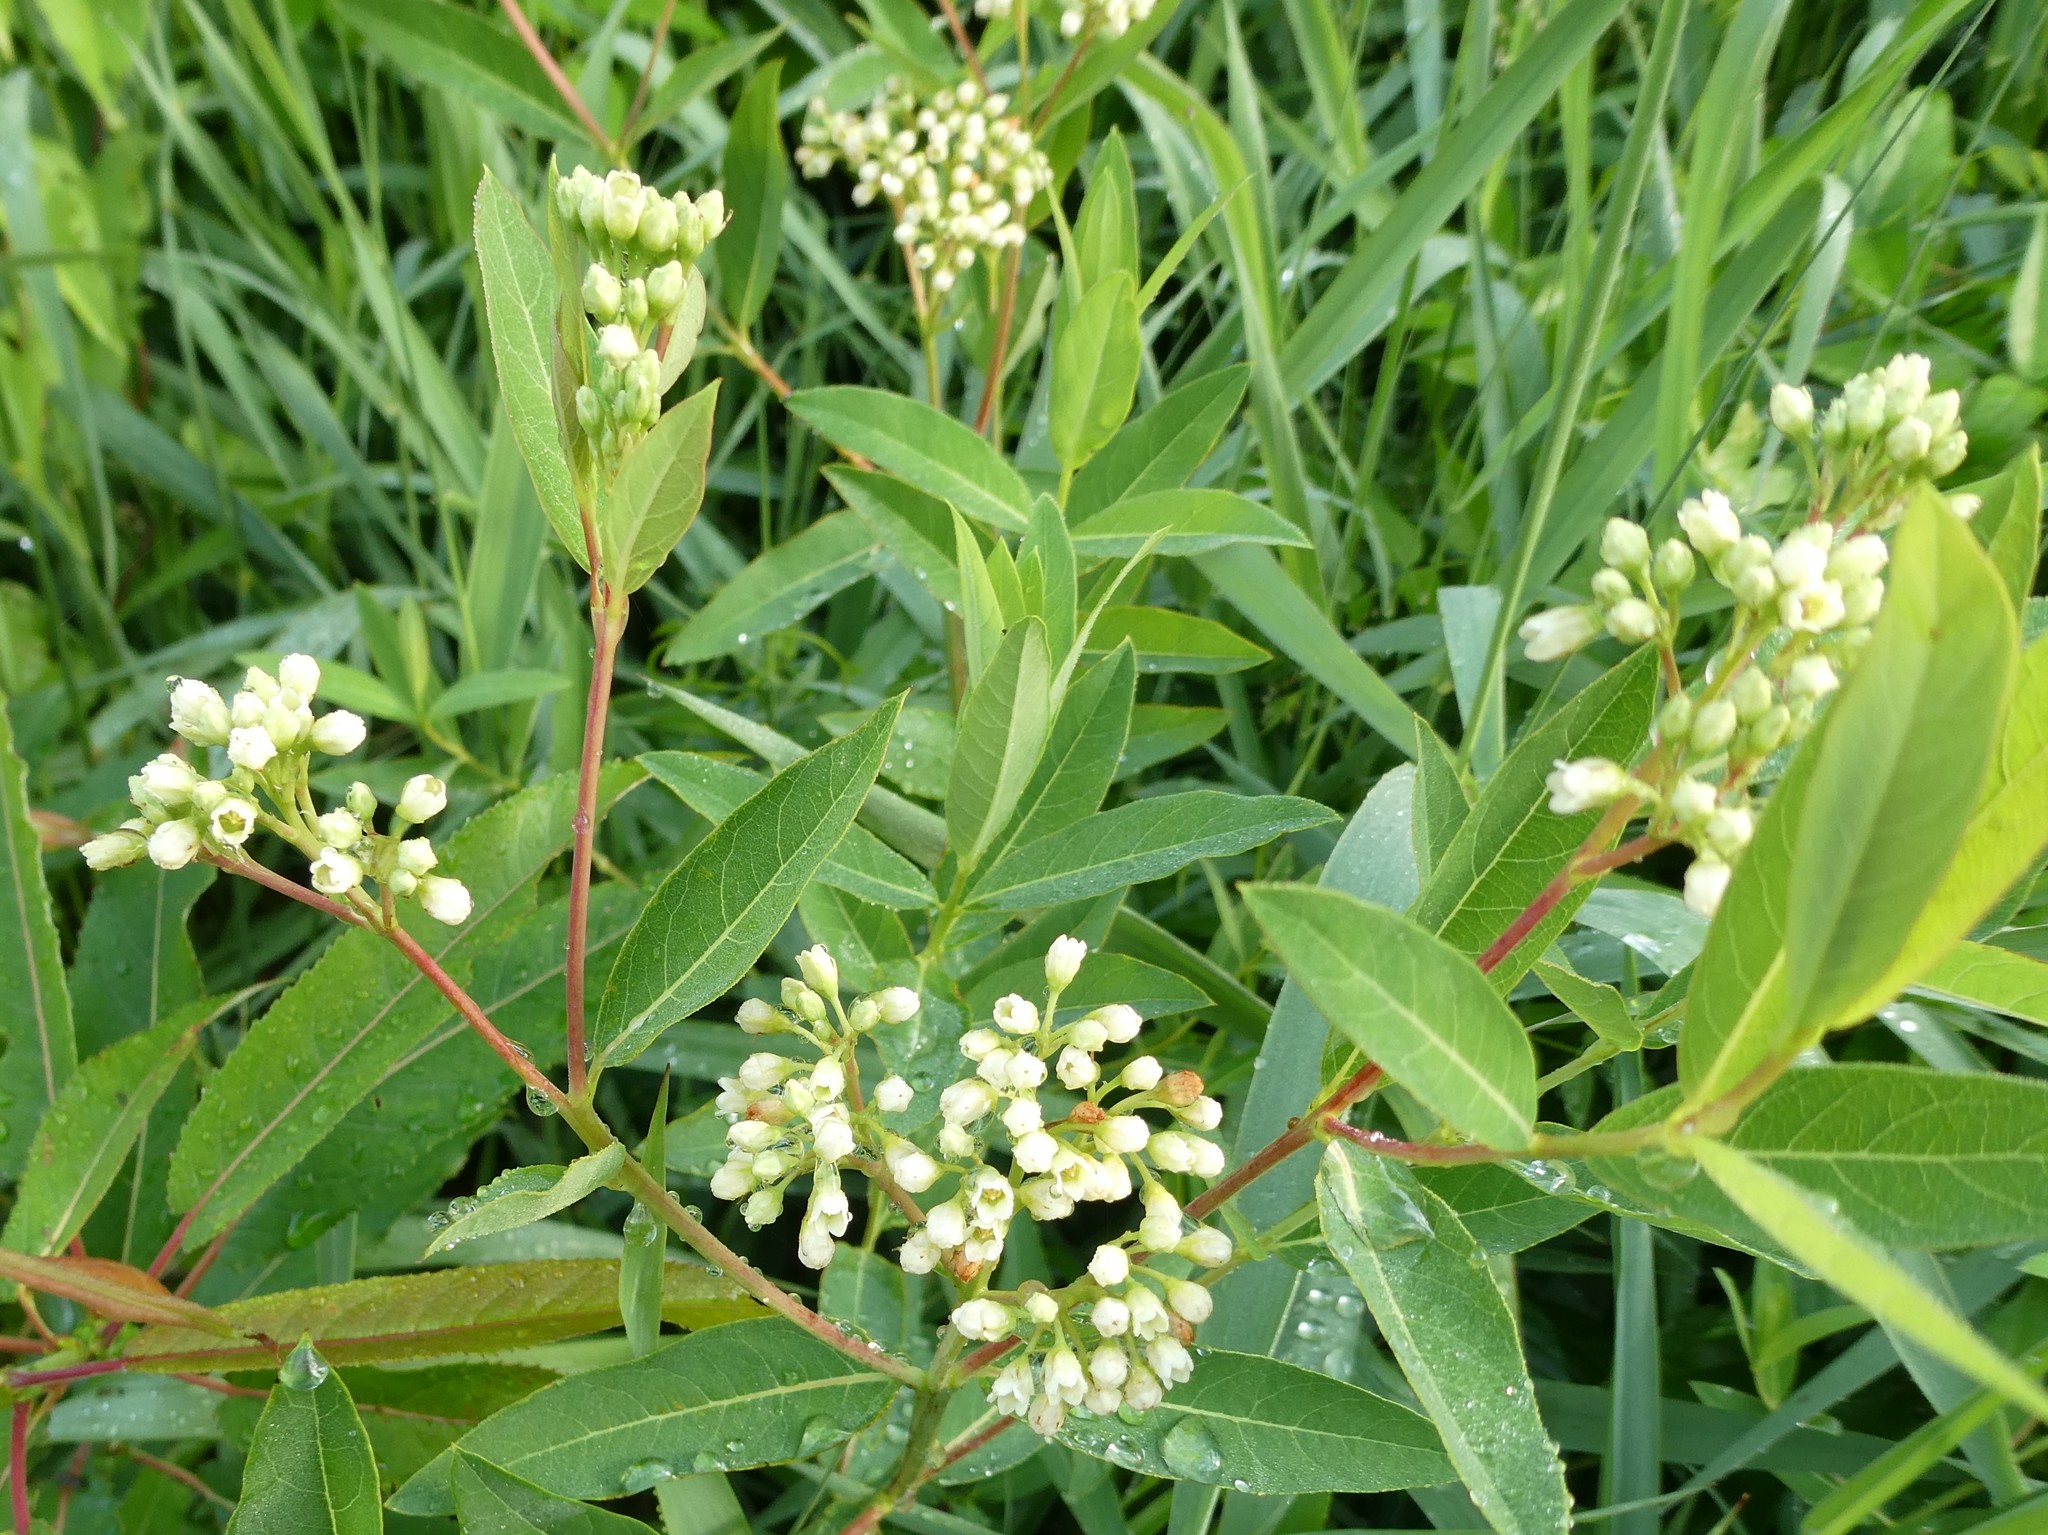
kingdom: Plantae
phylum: Tracheophyta
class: Magnoliopsida
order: Gentianales
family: Apocynaceae
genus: Apocynum
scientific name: Apocynum cannabinum
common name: Hemp dogbane
